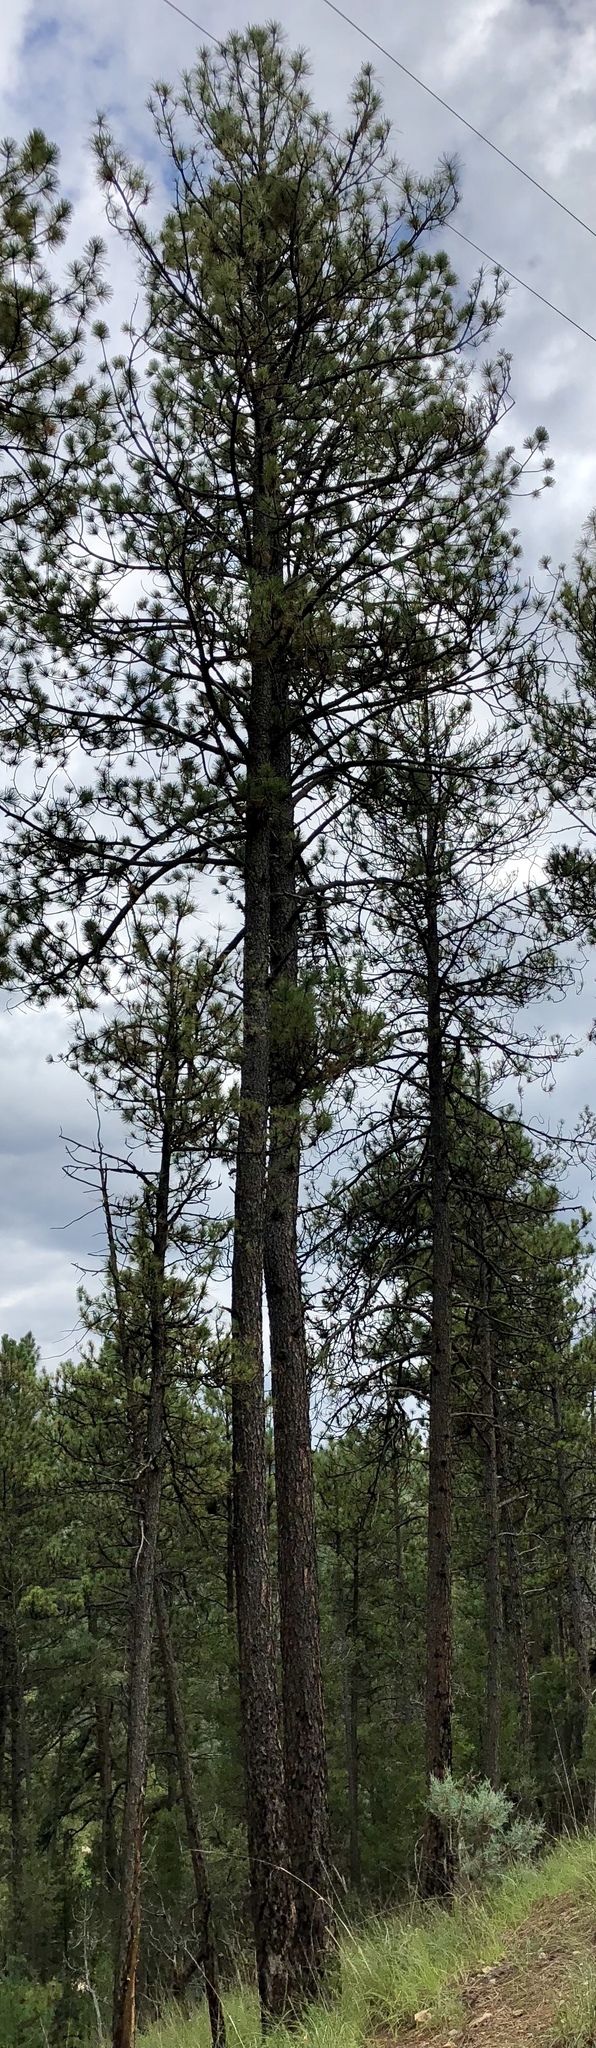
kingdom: Plantae
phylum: Tracheophyta
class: Pinopsida
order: Pinales
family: Pinaceae
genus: Pinus
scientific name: Pinus edulis
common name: Colorado pinyon
